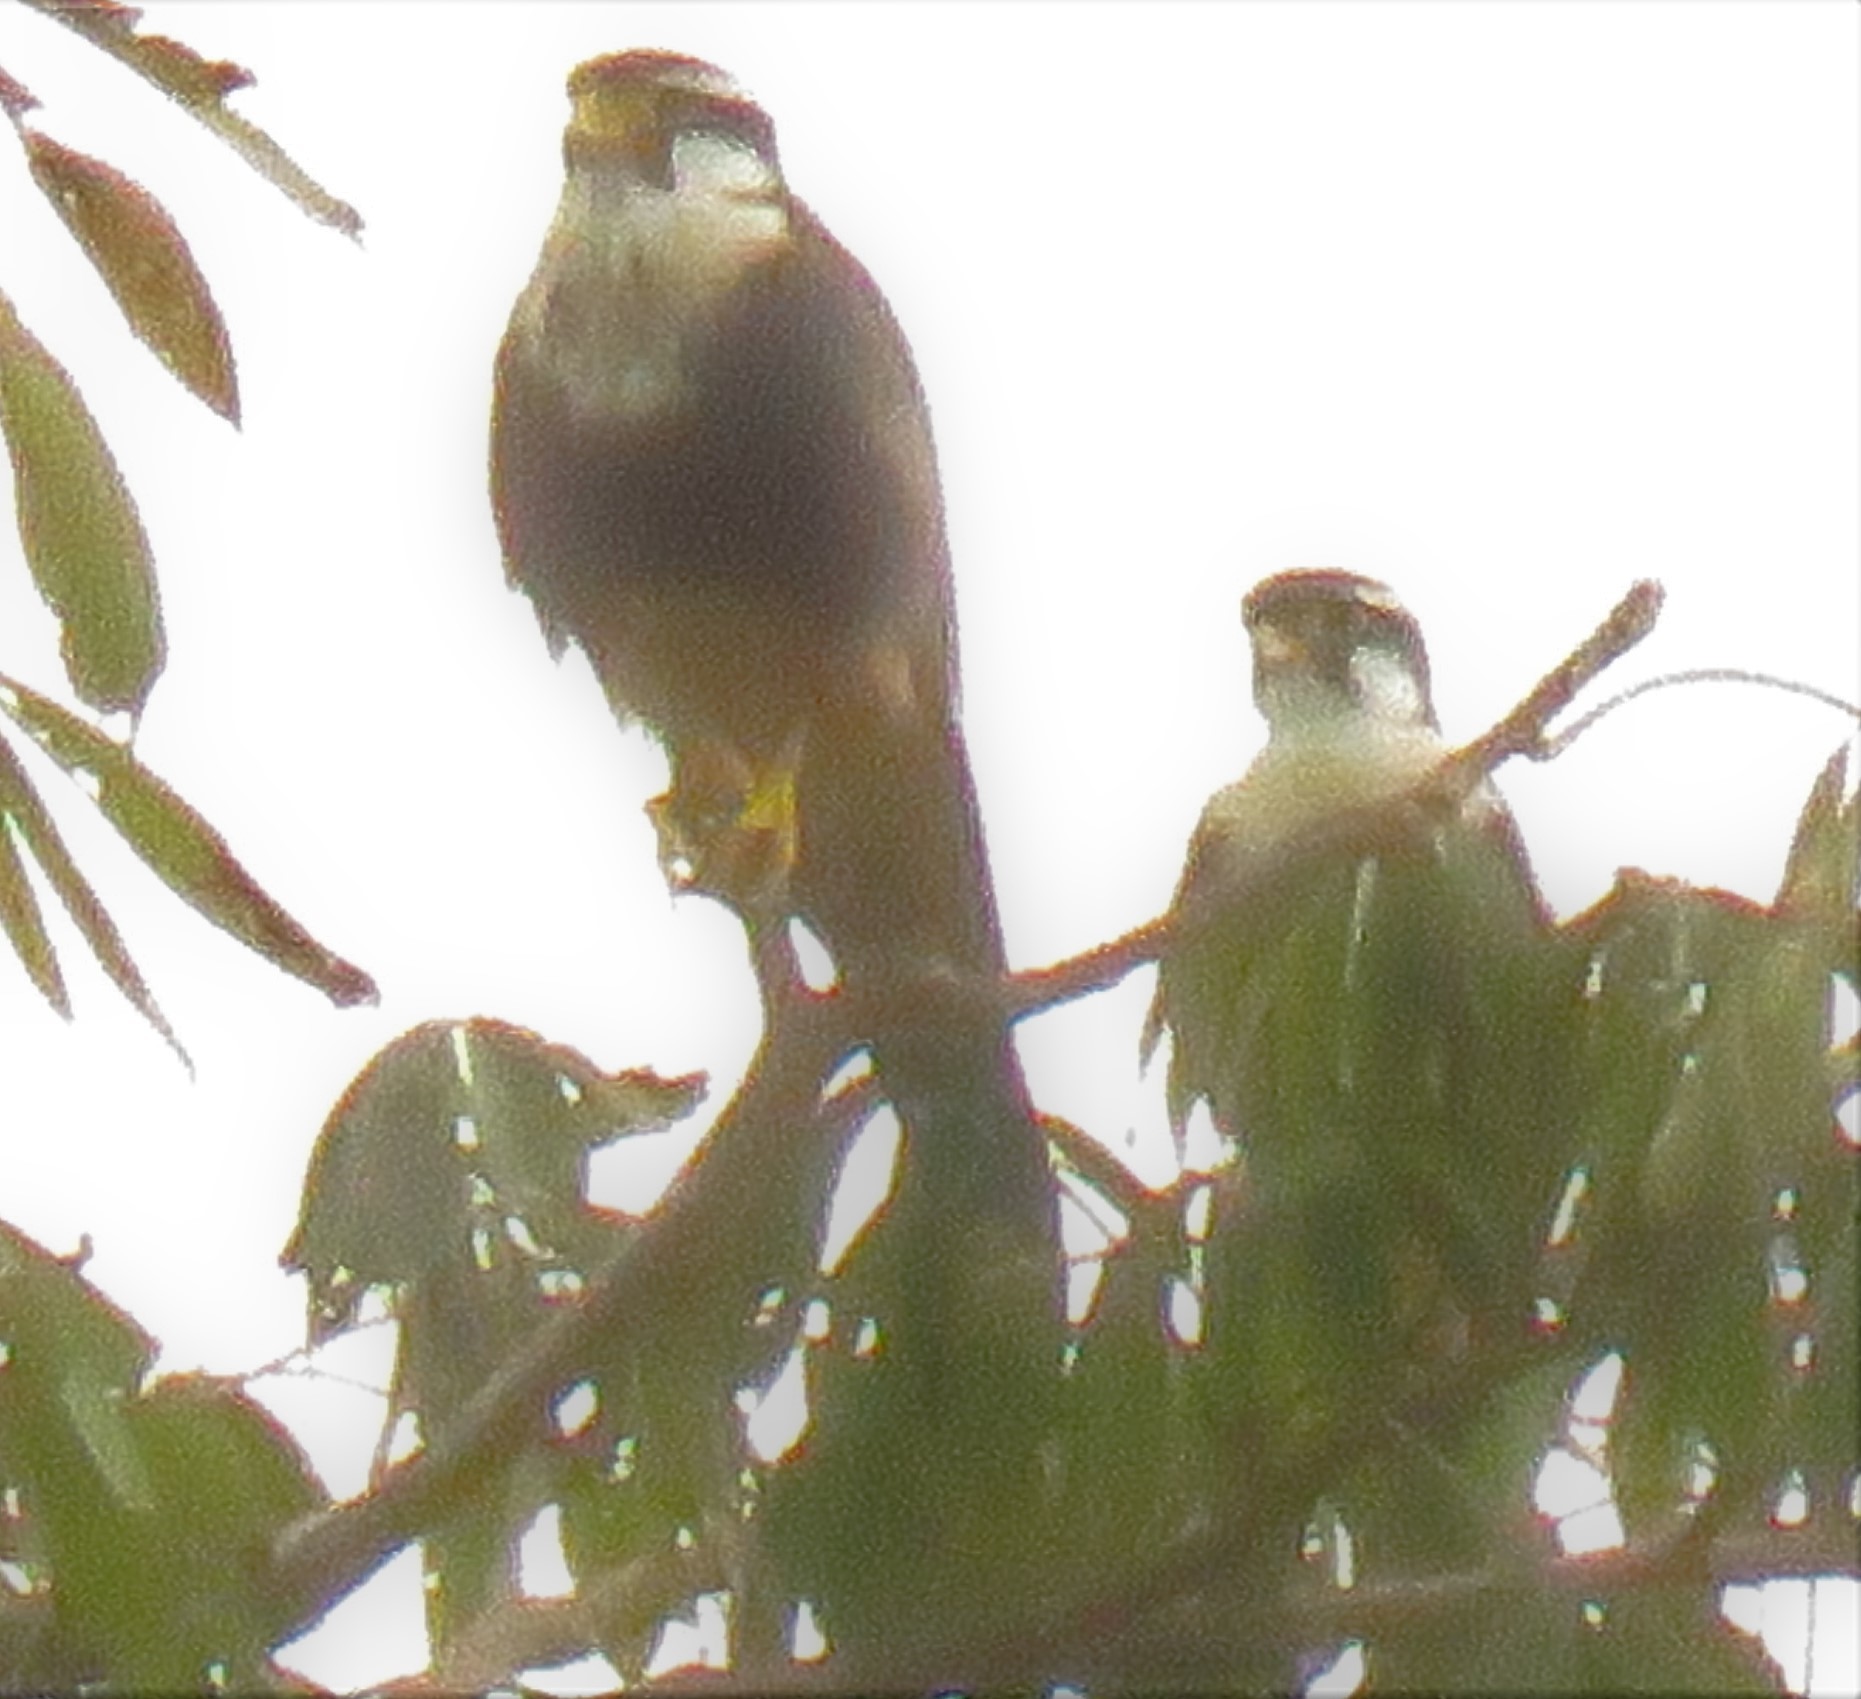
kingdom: Animalia
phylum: Chordata
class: Aves
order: Falconiformes
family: Falconidae
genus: Falco
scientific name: Falco femoralis
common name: Aplomado falcon
